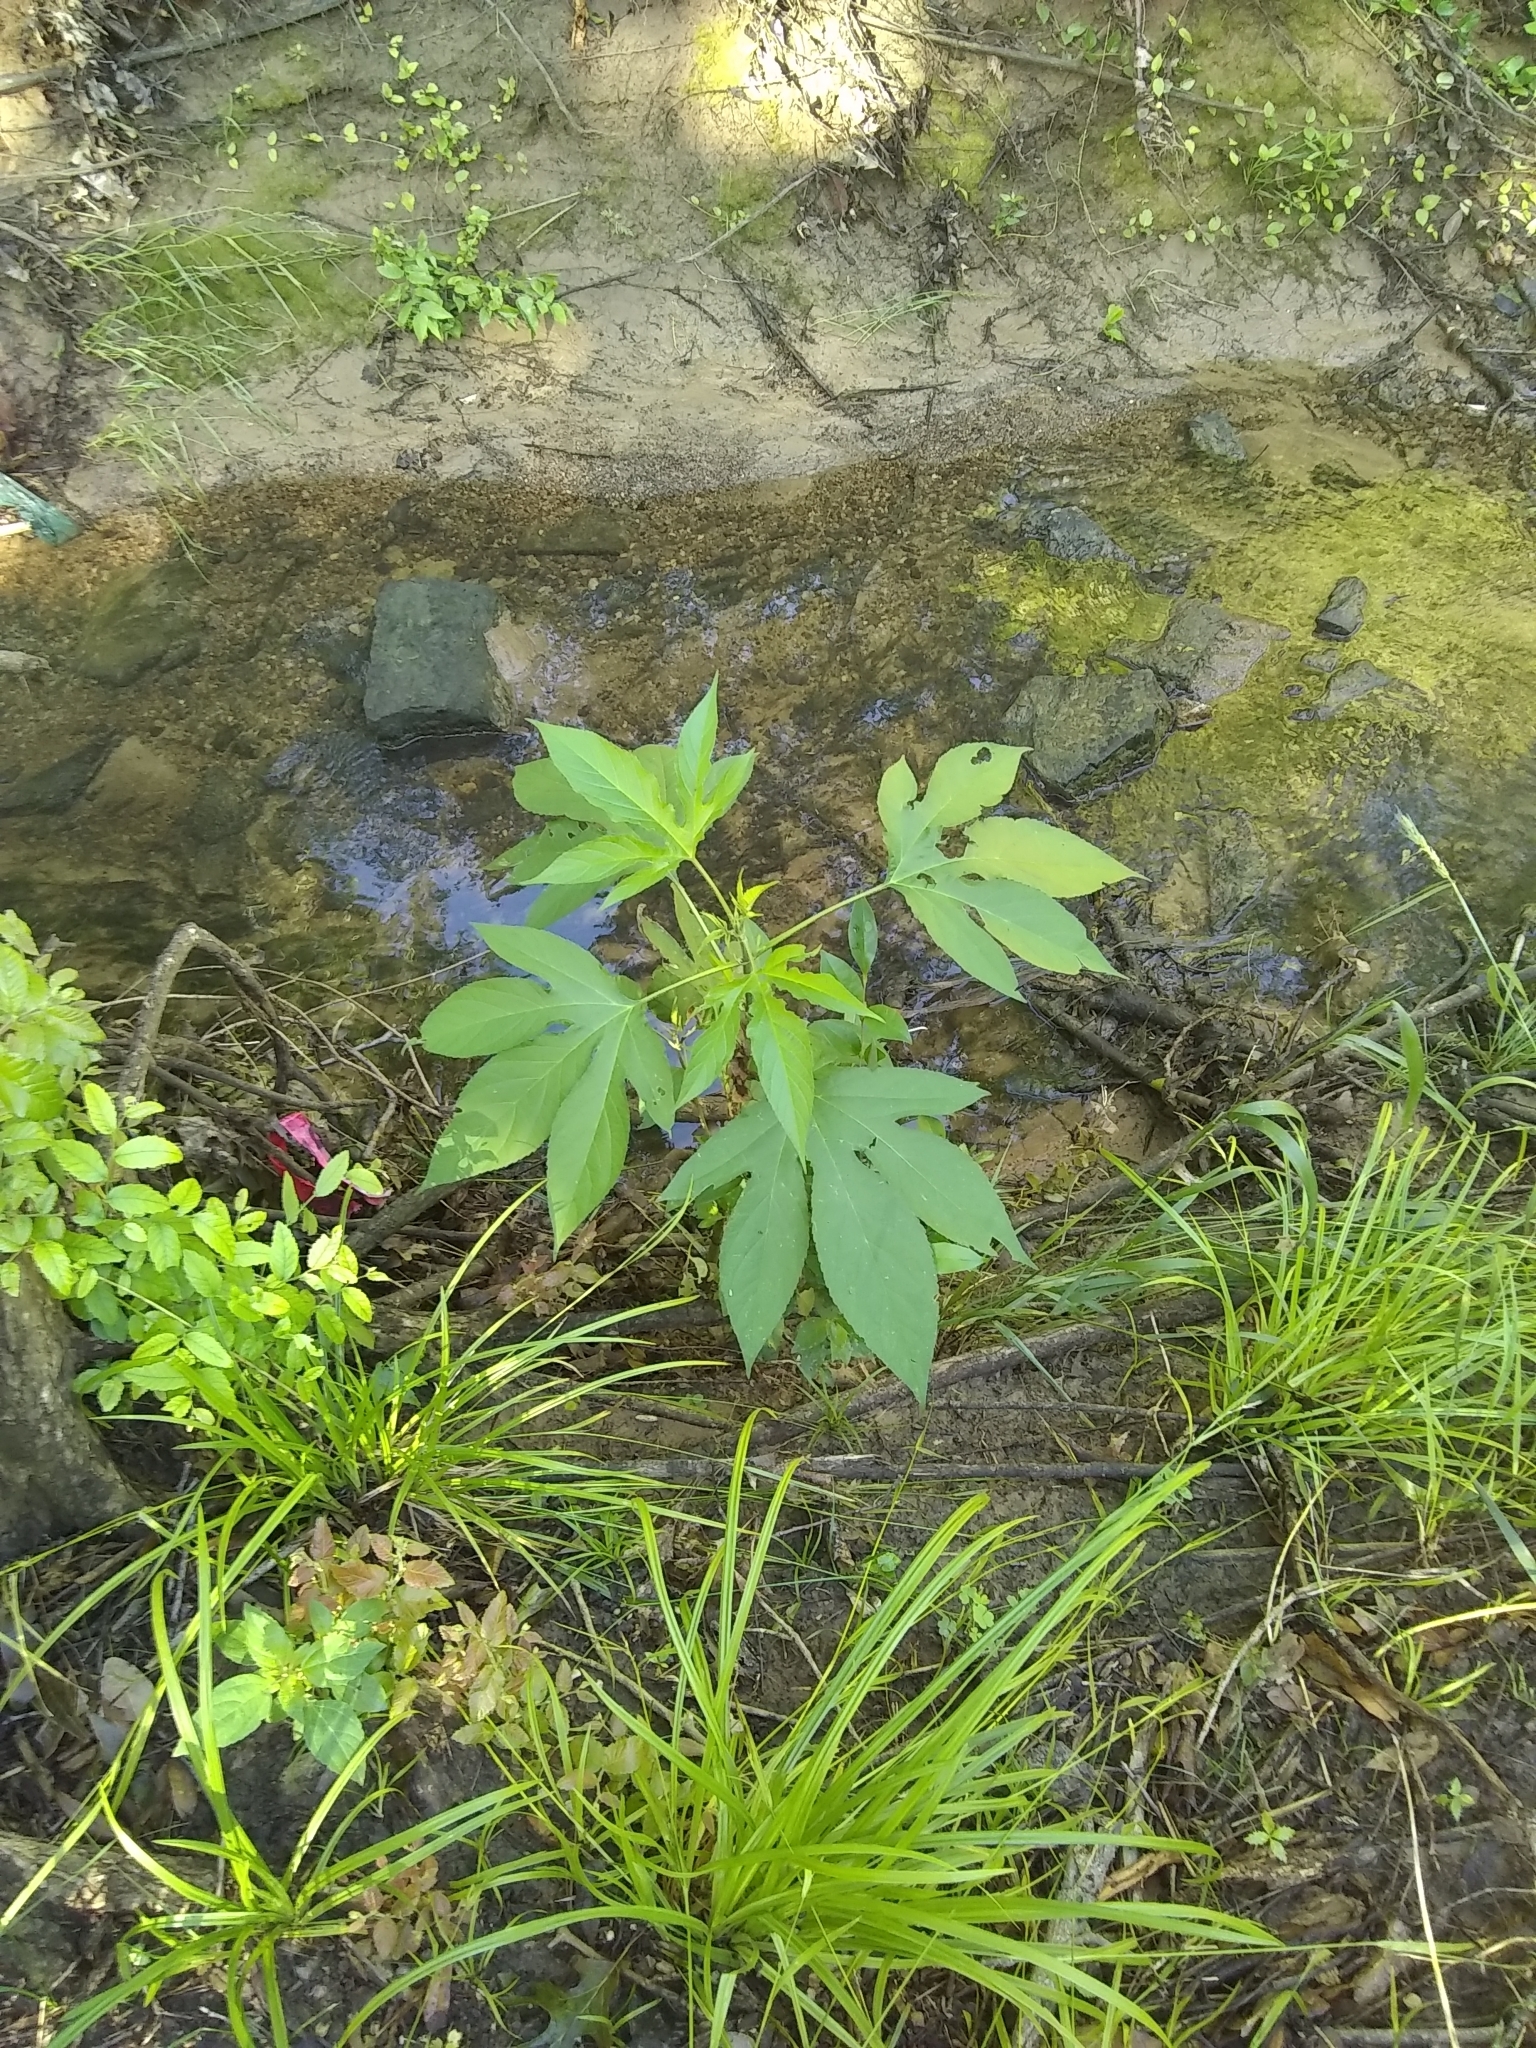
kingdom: Plantae
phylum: Tracheophyta
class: Magnoliopsida
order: Asterales
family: Asteraceae
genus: Ambrosia
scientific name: Ambrosia trifida
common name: Giant ragweed
